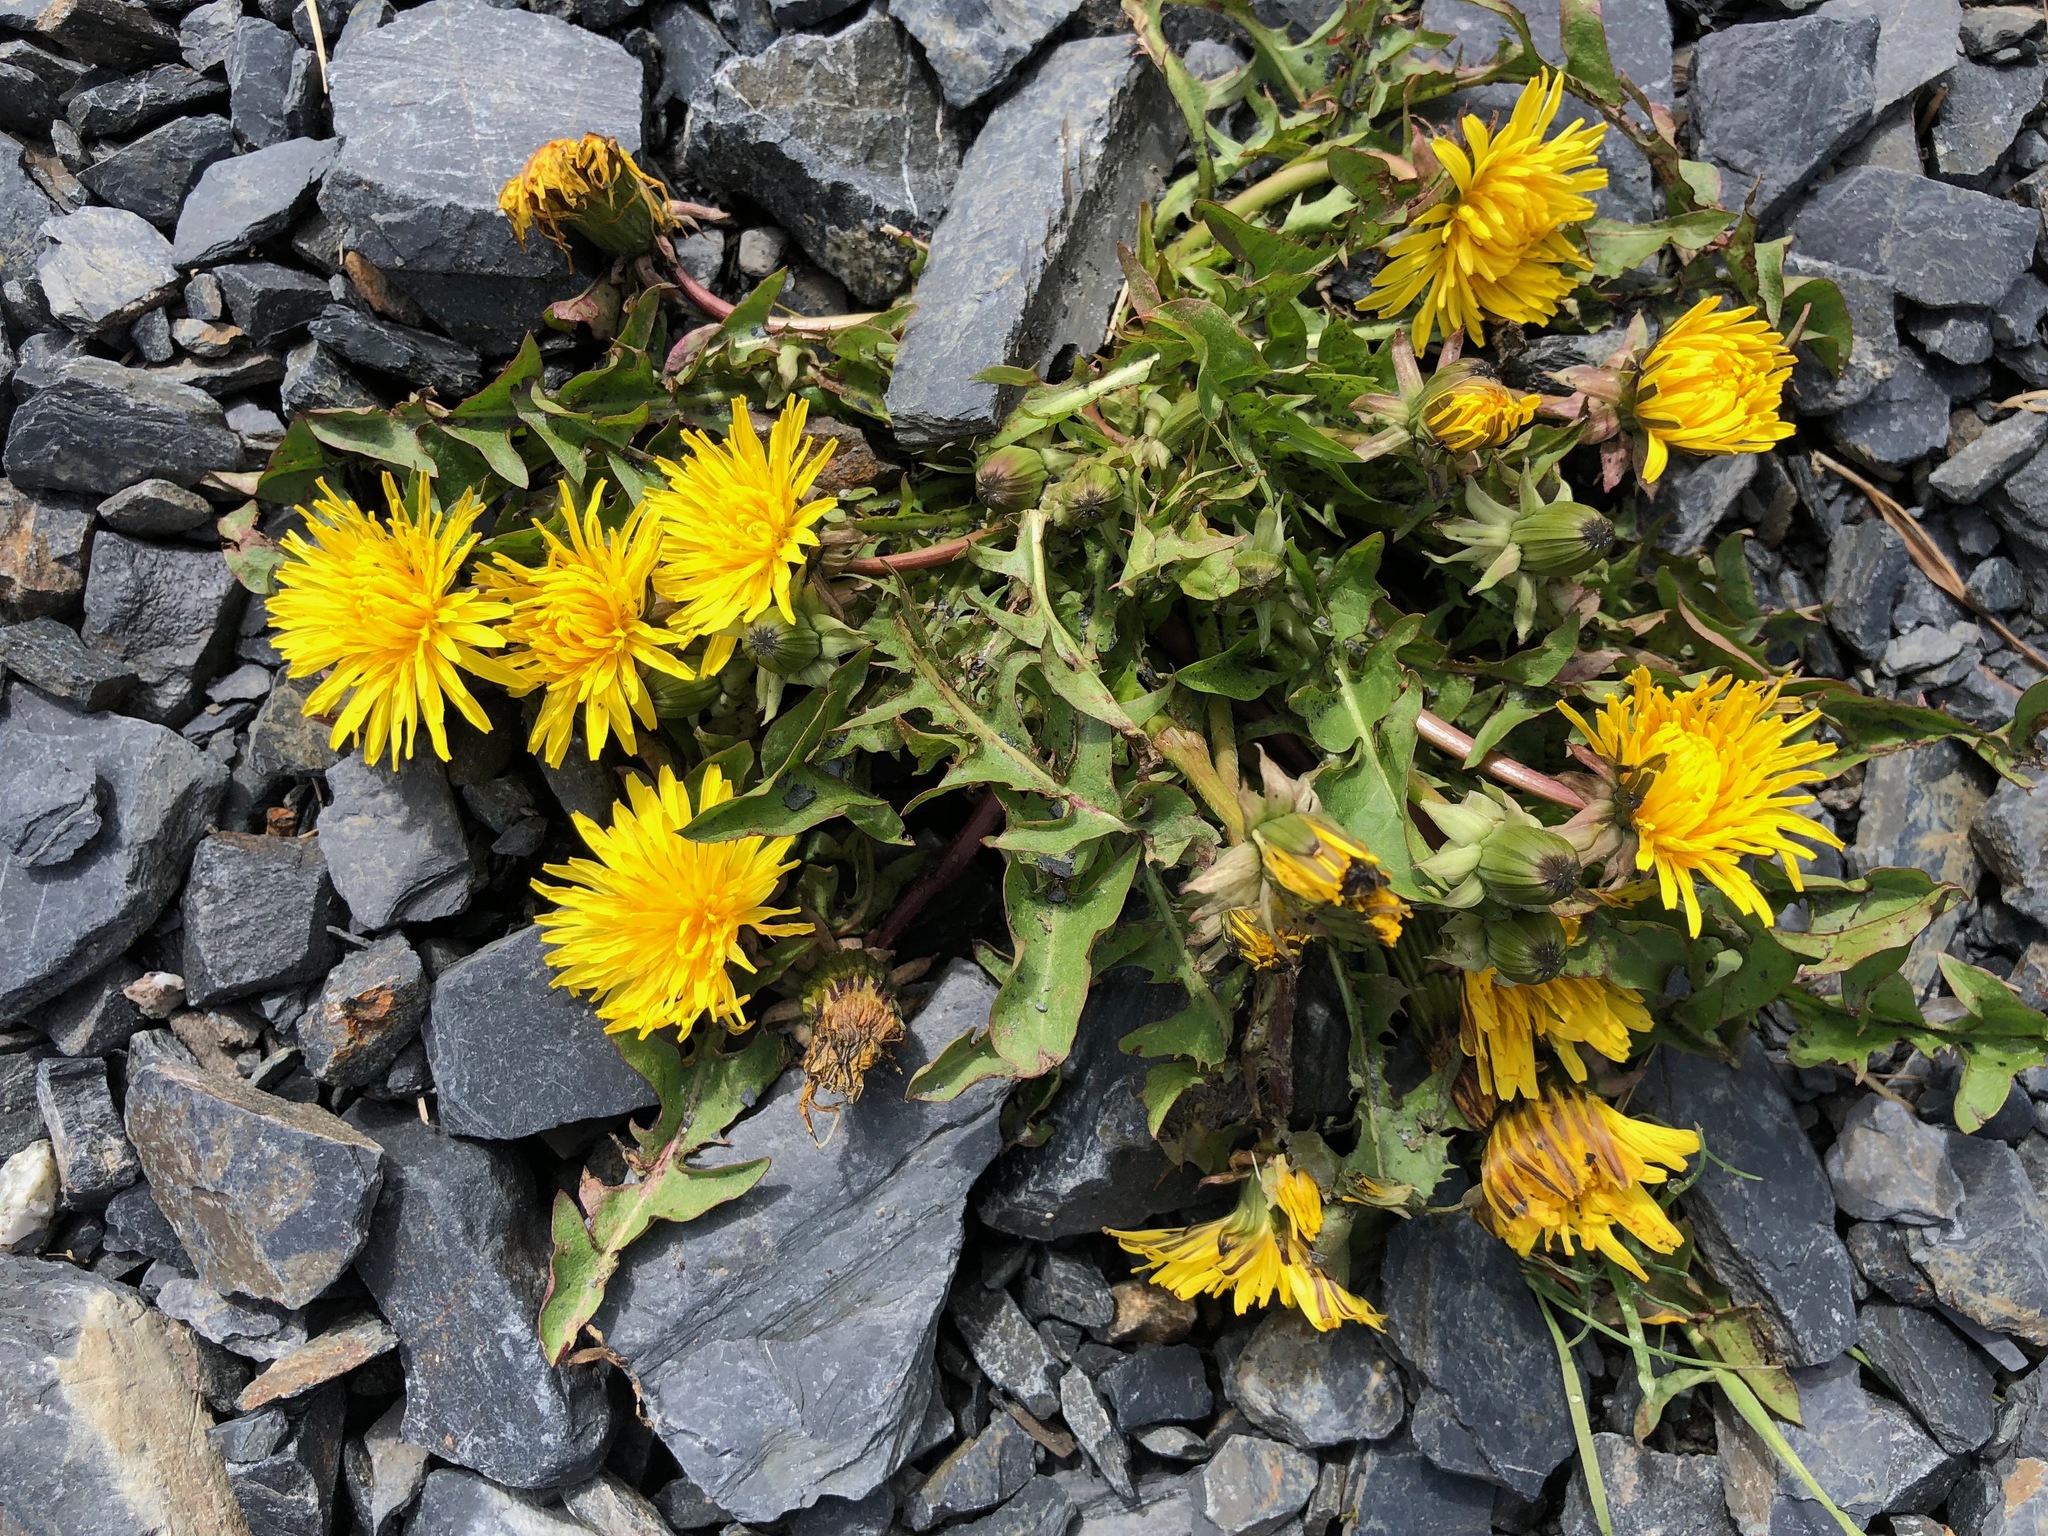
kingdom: Plantae
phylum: Tracheophyta
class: Magnoliopsida
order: Asterales
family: Asteraceae
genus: Taraxacum
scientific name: Taraxacum officinale
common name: Common dandelion
